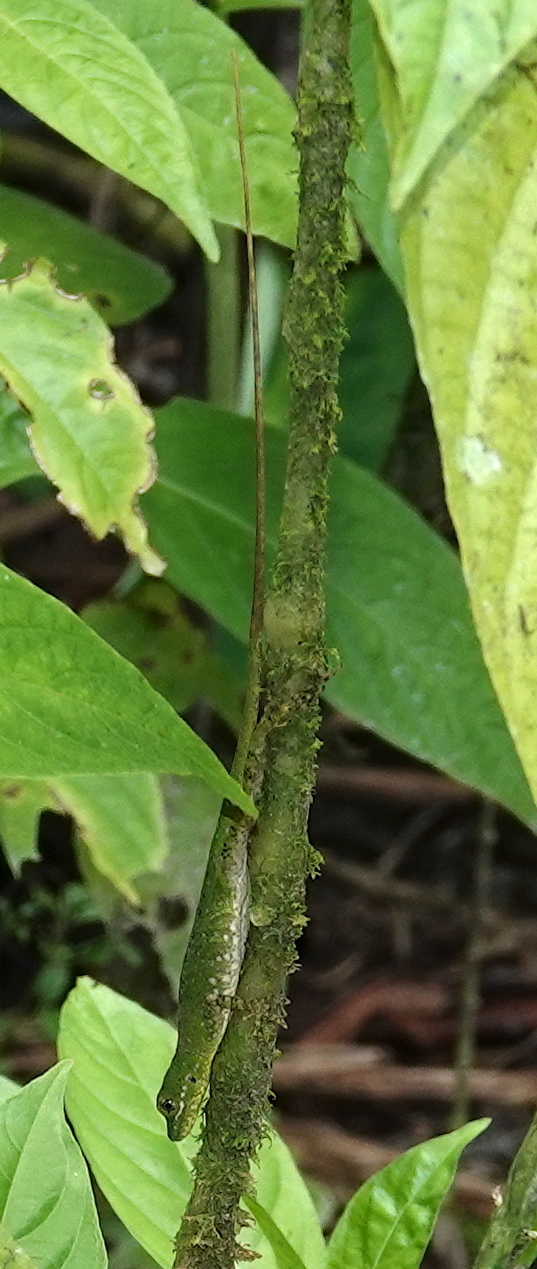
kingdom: Animalia
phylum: Chordata
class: Squamata
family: Dactyloidae
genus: Anolis
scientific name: Anolis gemmosus
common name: O'shaughnessy's anole
